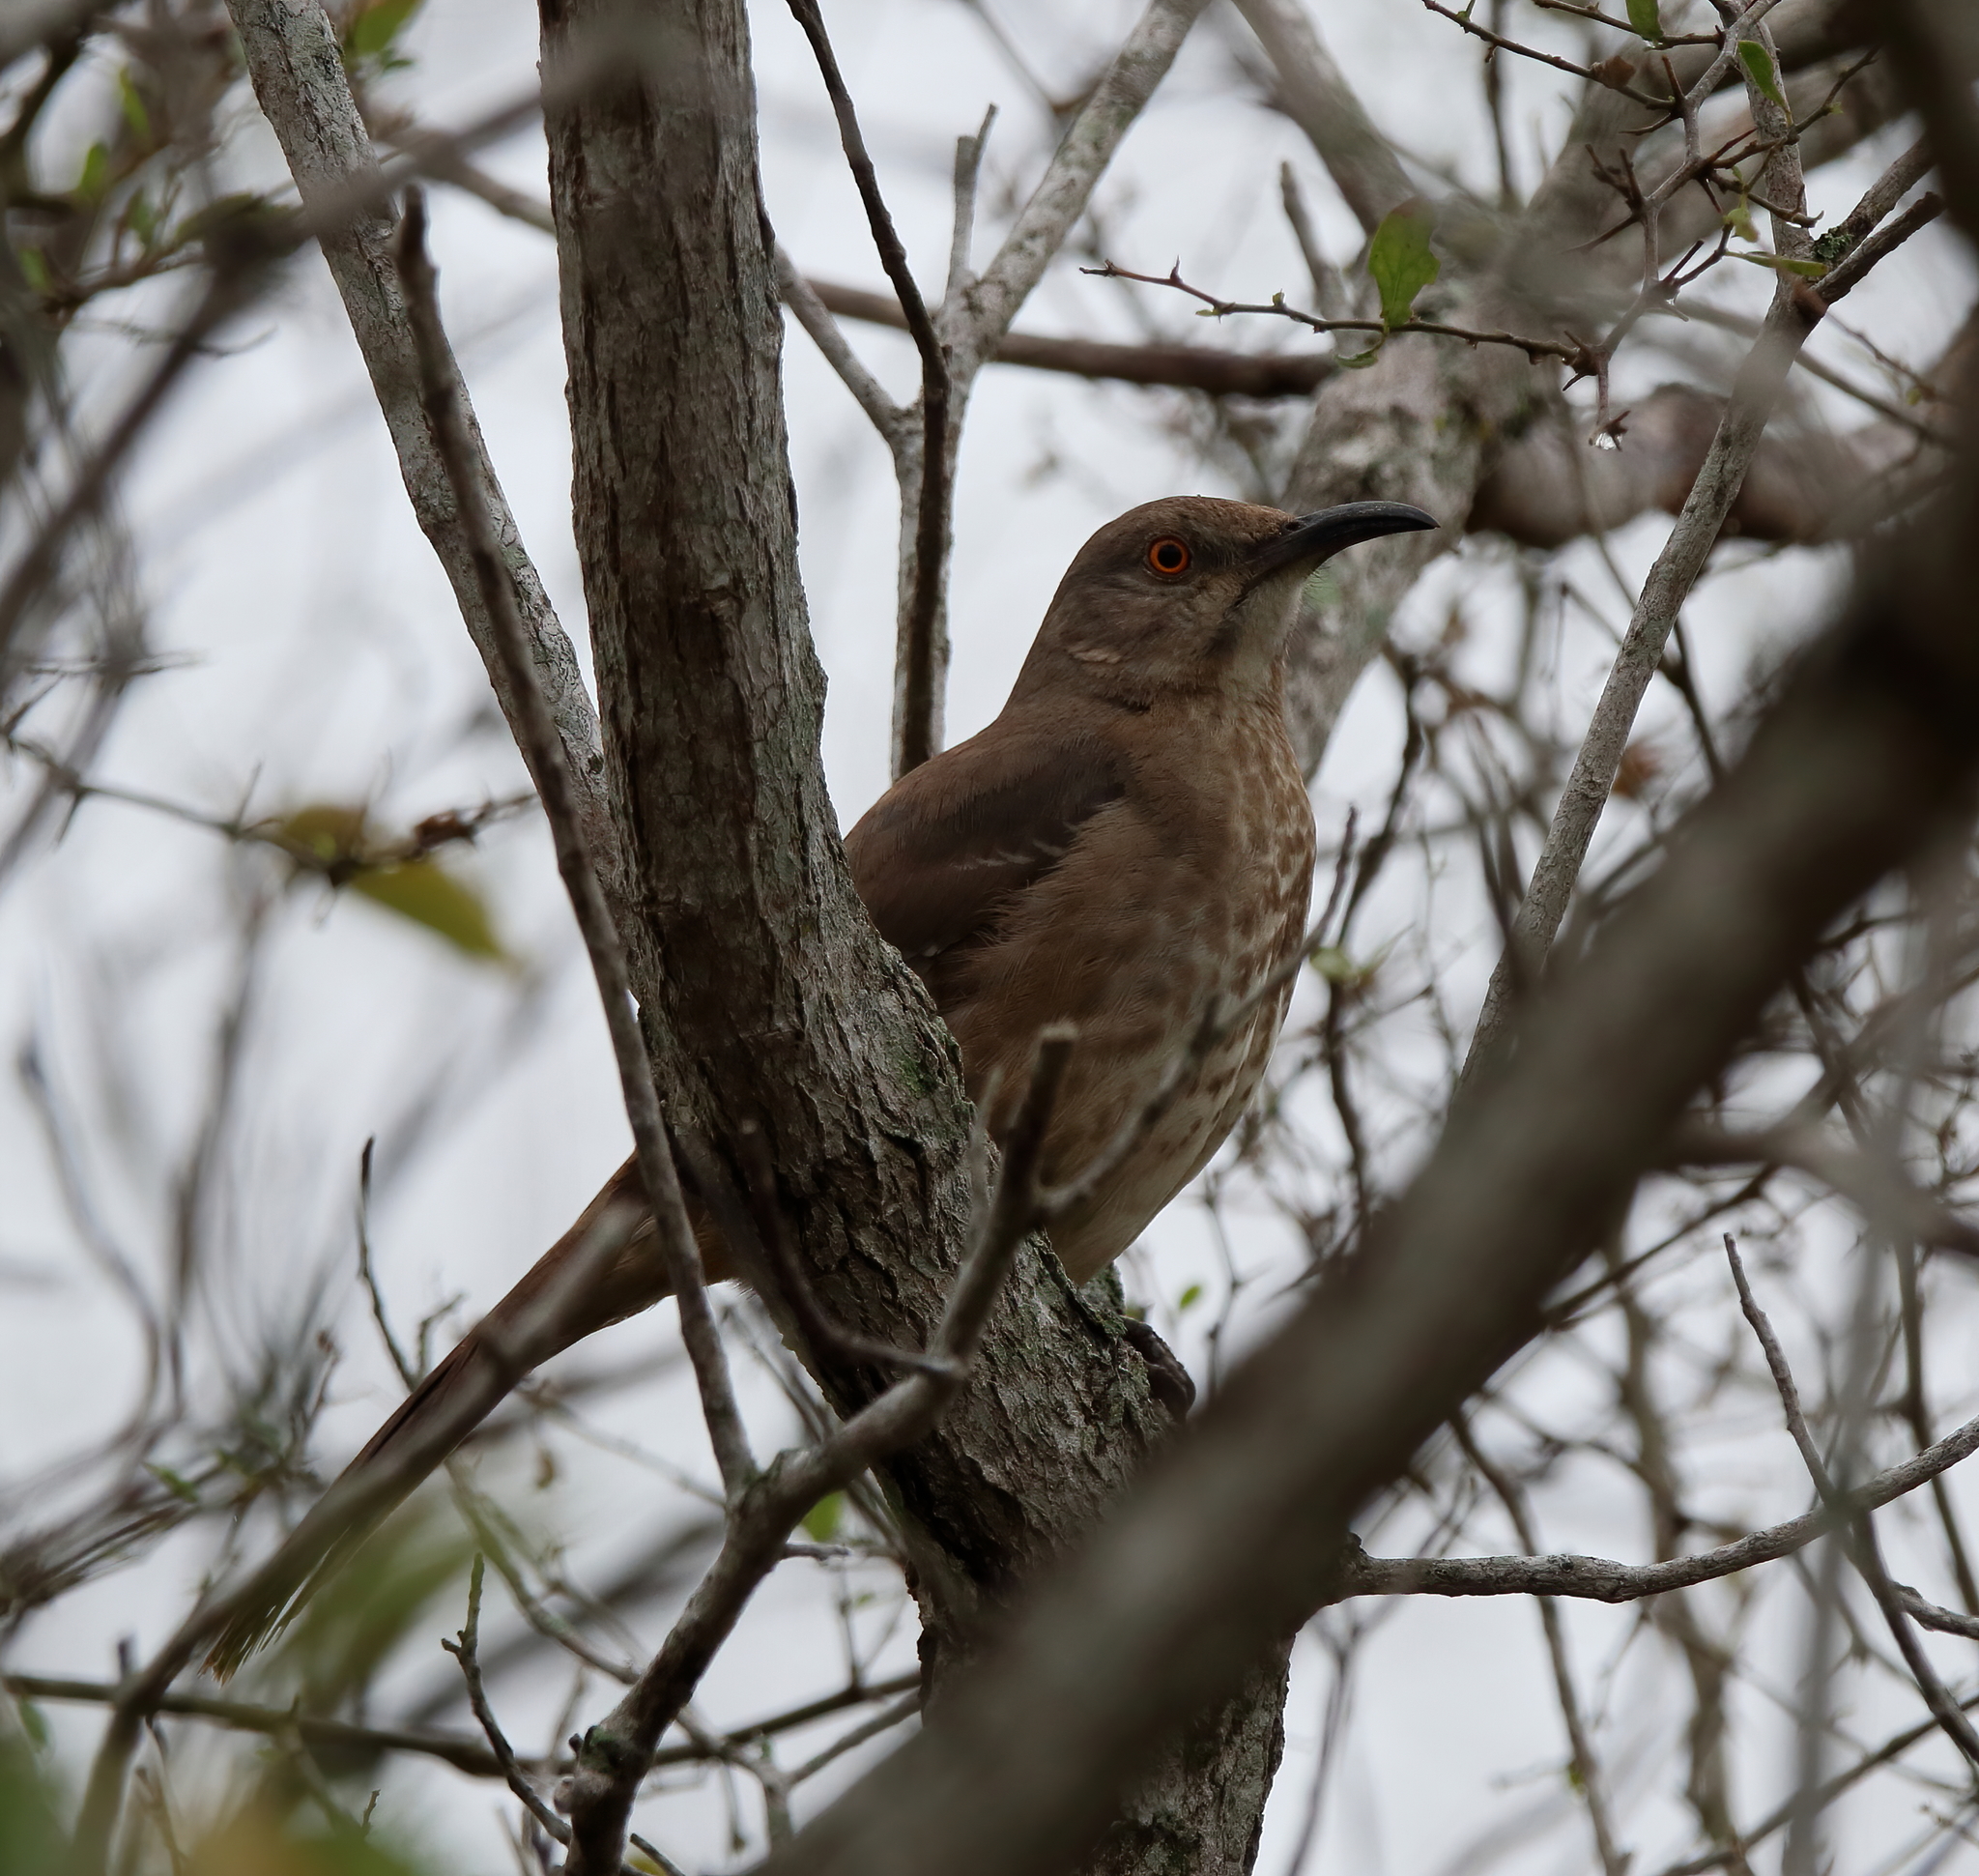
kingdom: Animalia
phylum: Chordata
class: Aves
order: Passeriformes
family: Mimidae
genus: Toxostoma
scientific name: Toxostoma curvirostre
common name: Curve-billed thrasher
